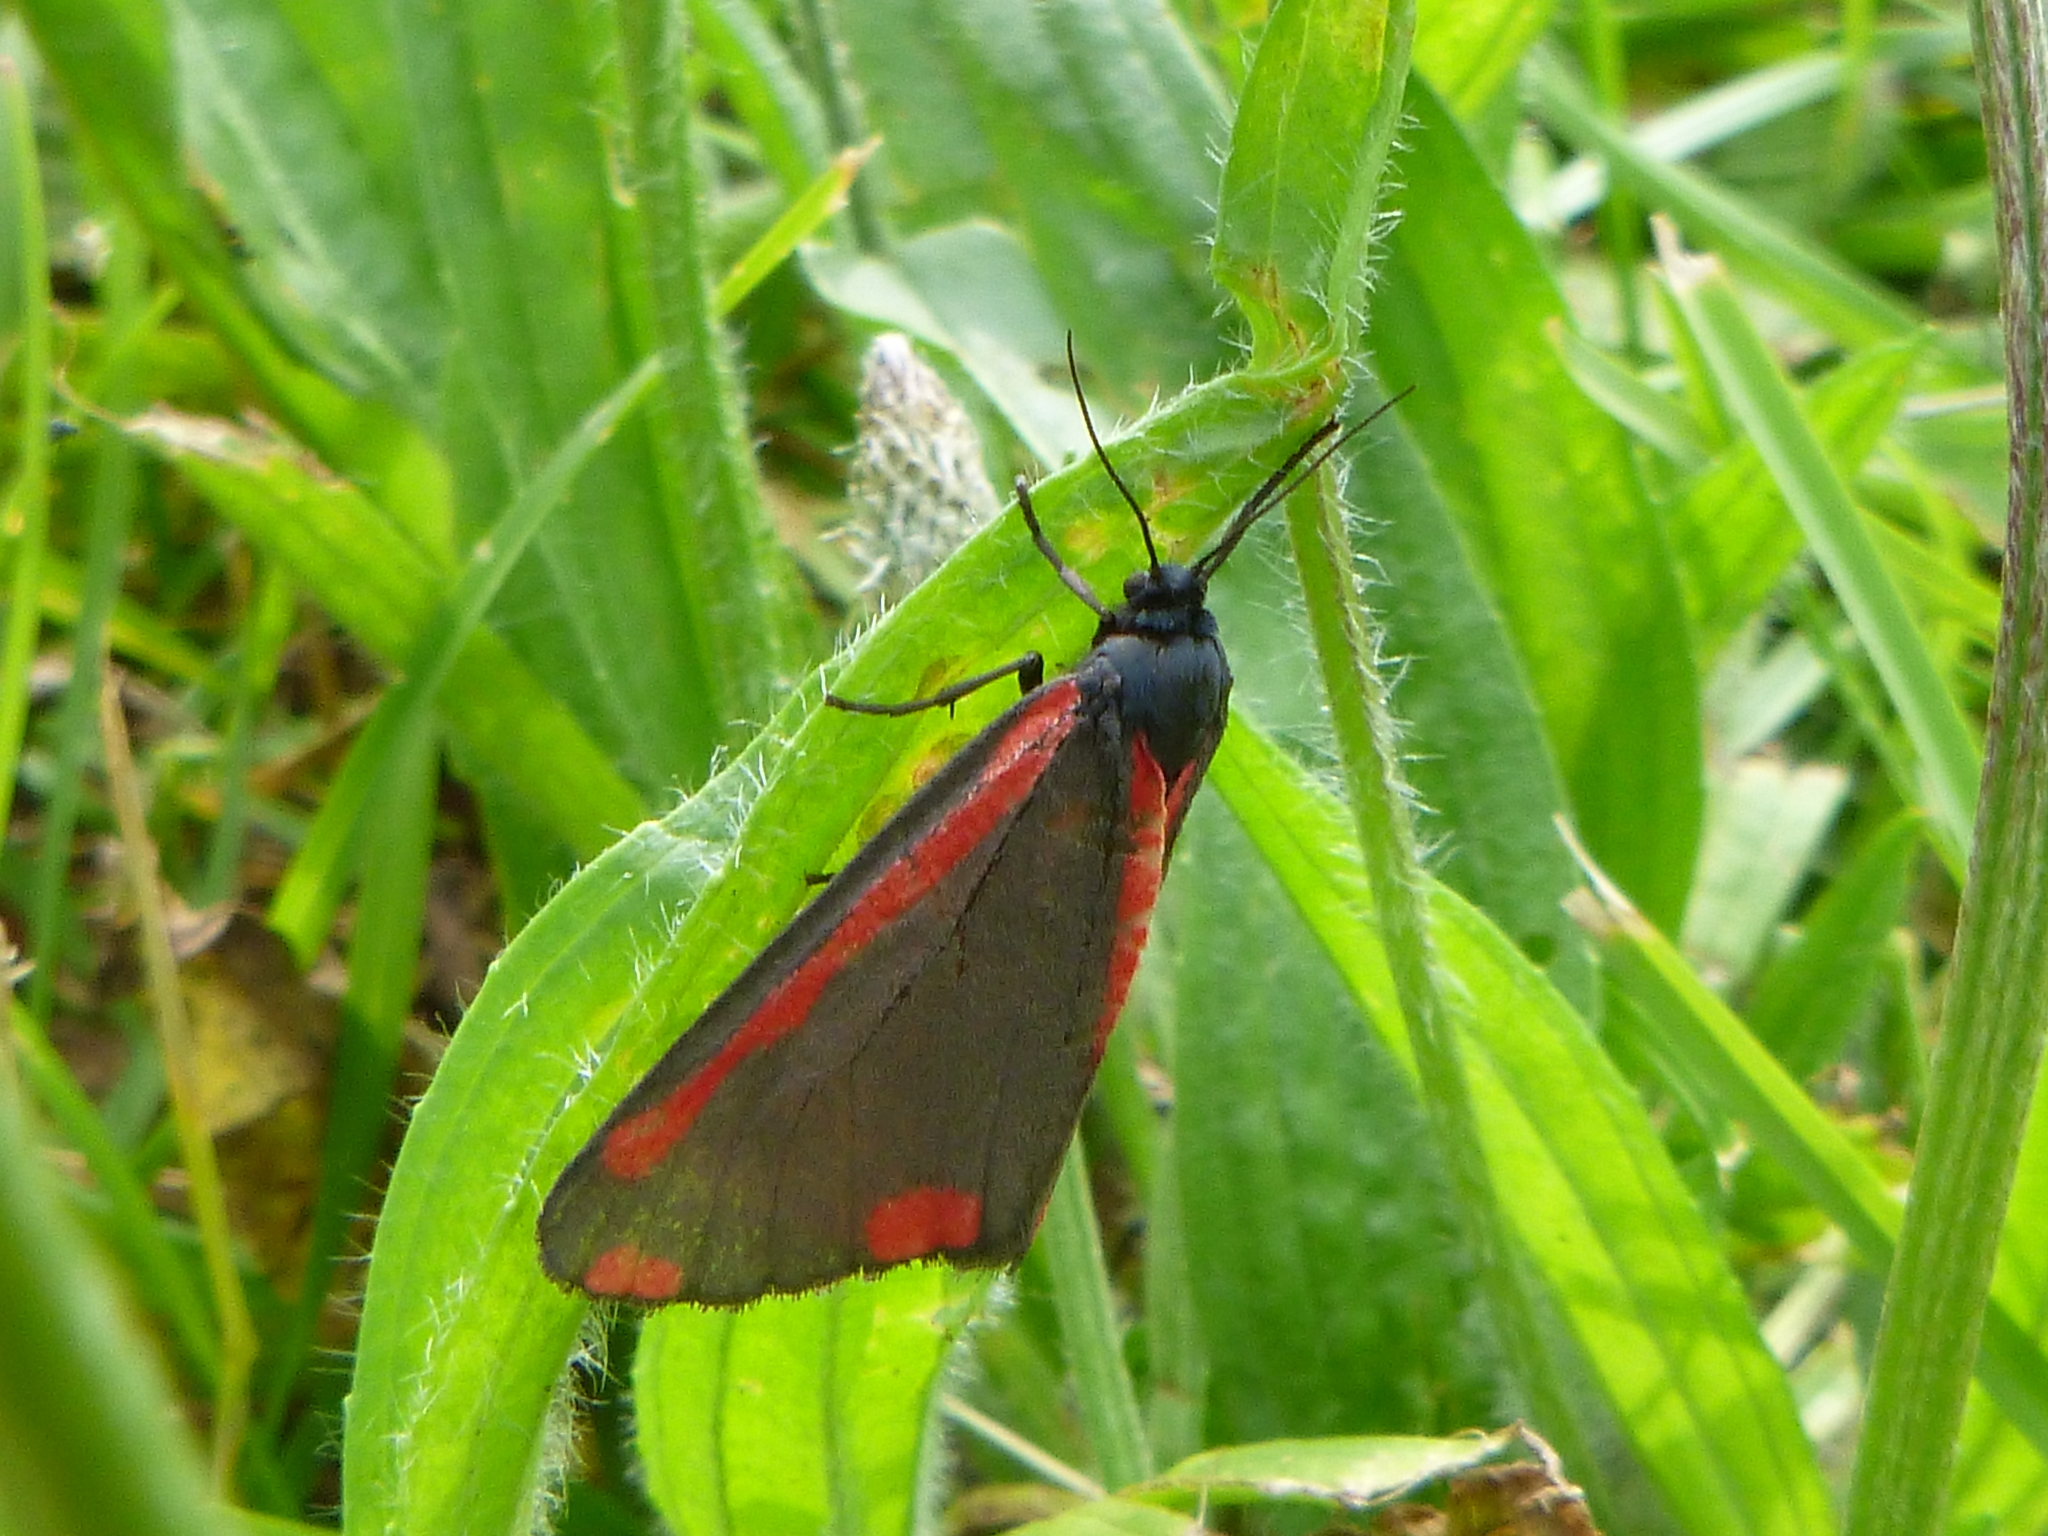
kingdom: Animalia
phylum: Arthropoda
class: Insecta
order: Lepidoptera
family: Erebidae
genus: Tyria
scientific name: Tyria jacobaeae
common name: Cinnabar
